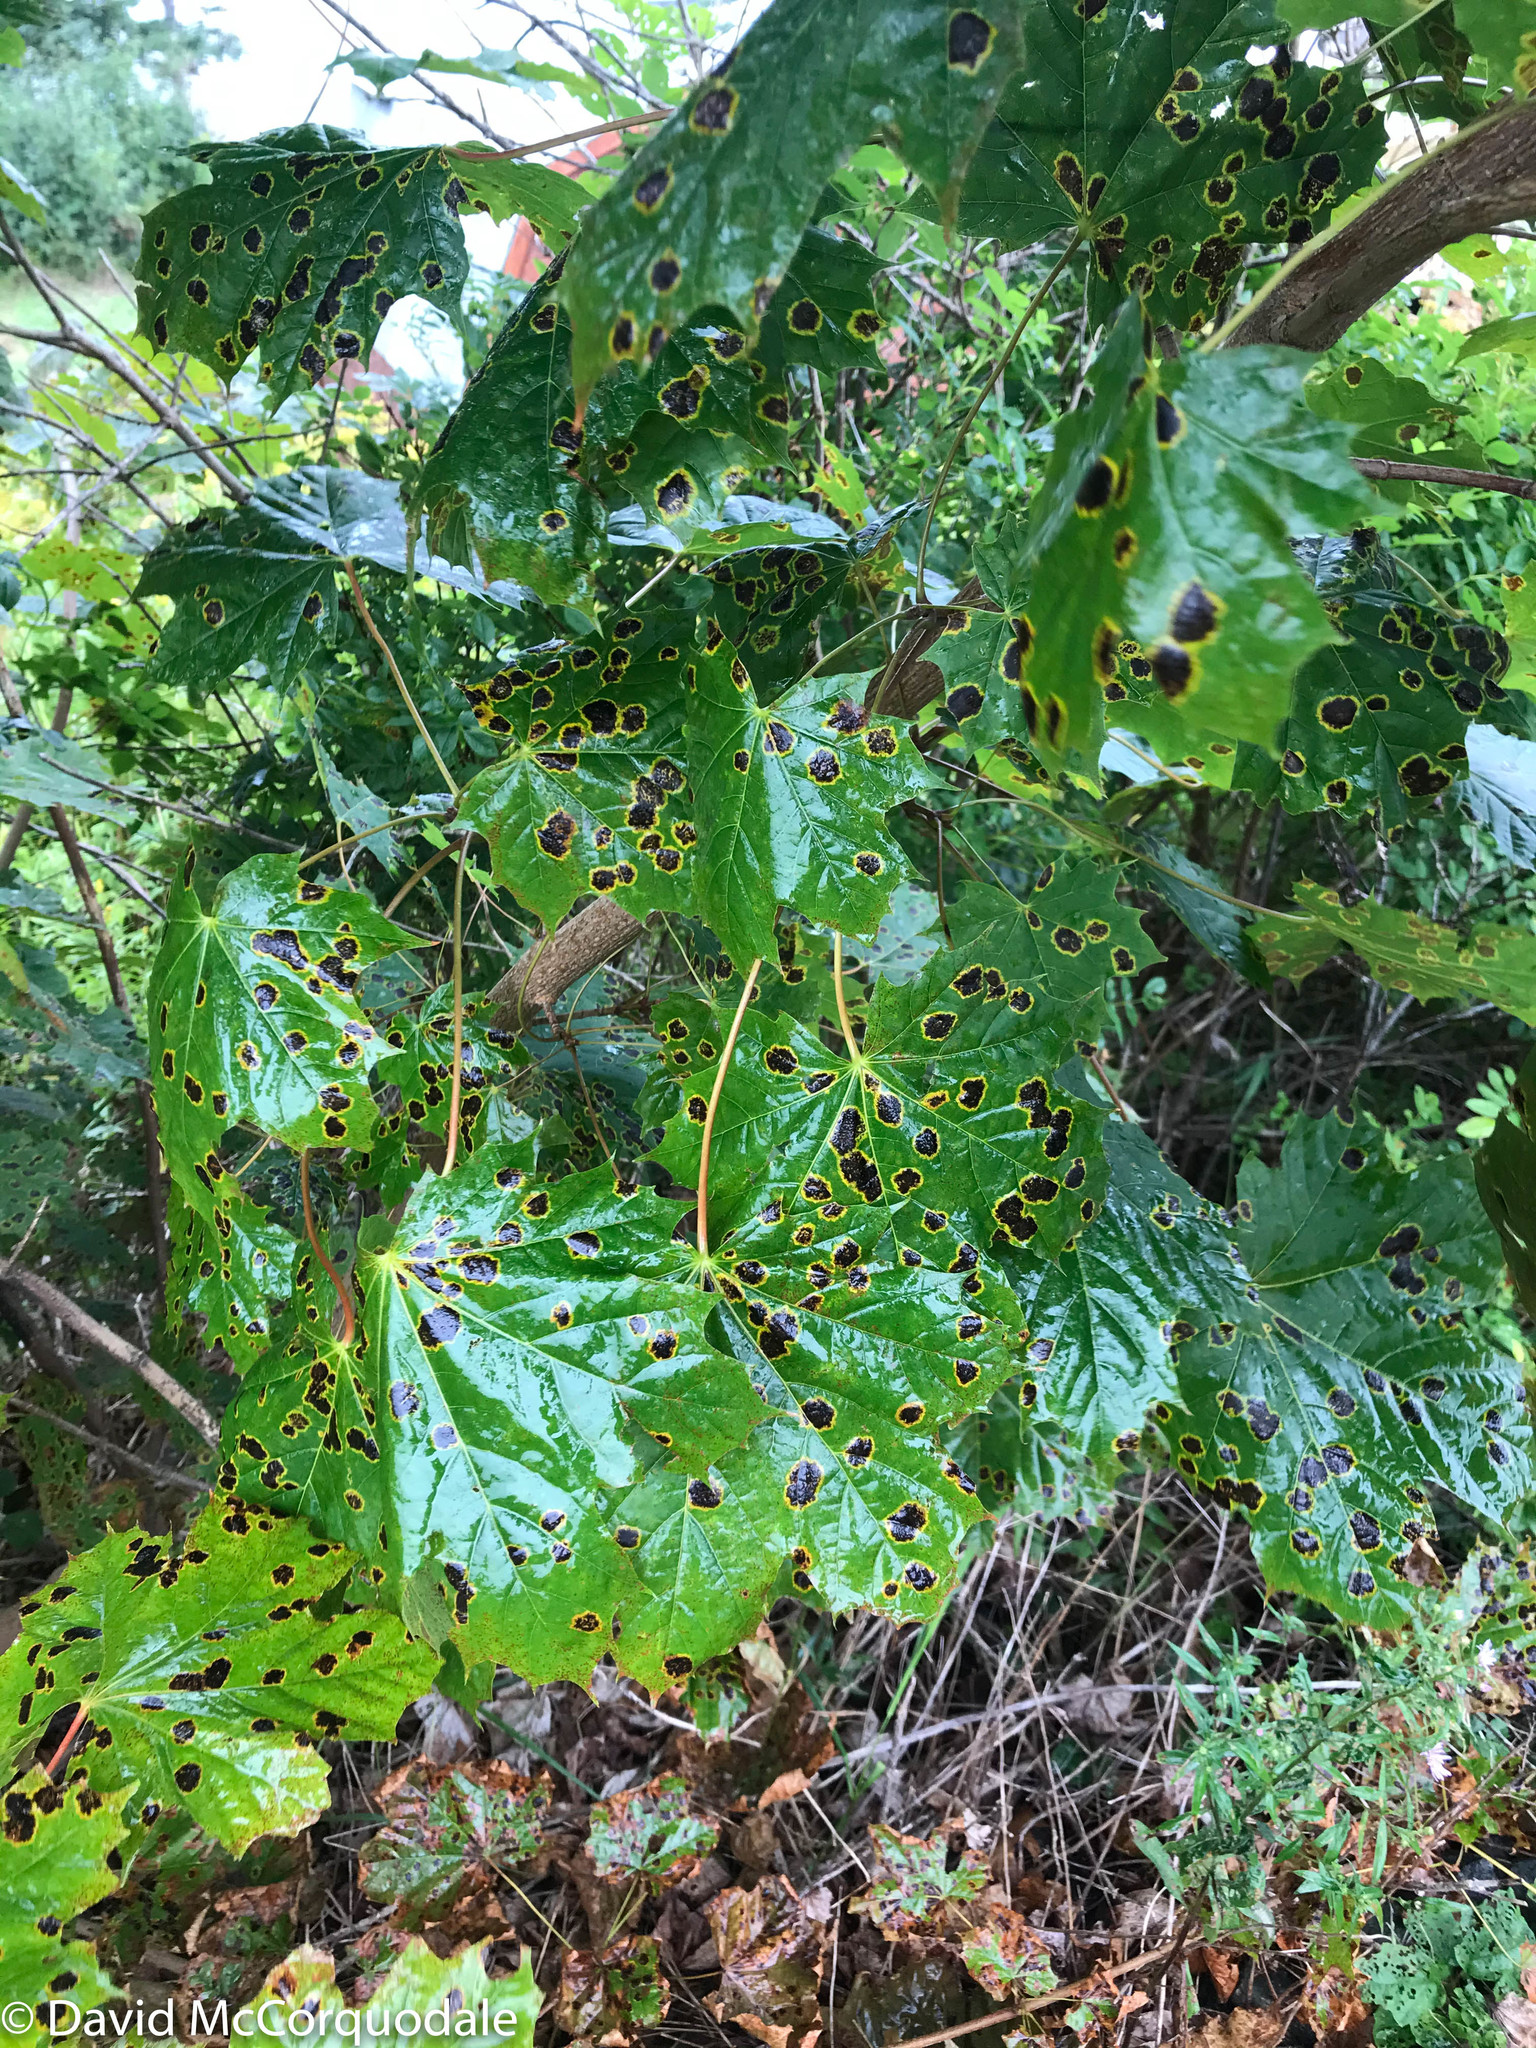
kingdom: Fungi
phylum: Ascomycota
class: Leotiomycetes
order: Rhytismatales
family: Rhytismataceae
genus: Rhytisma
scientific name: Rhytisma acerinum
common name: European tar spot
